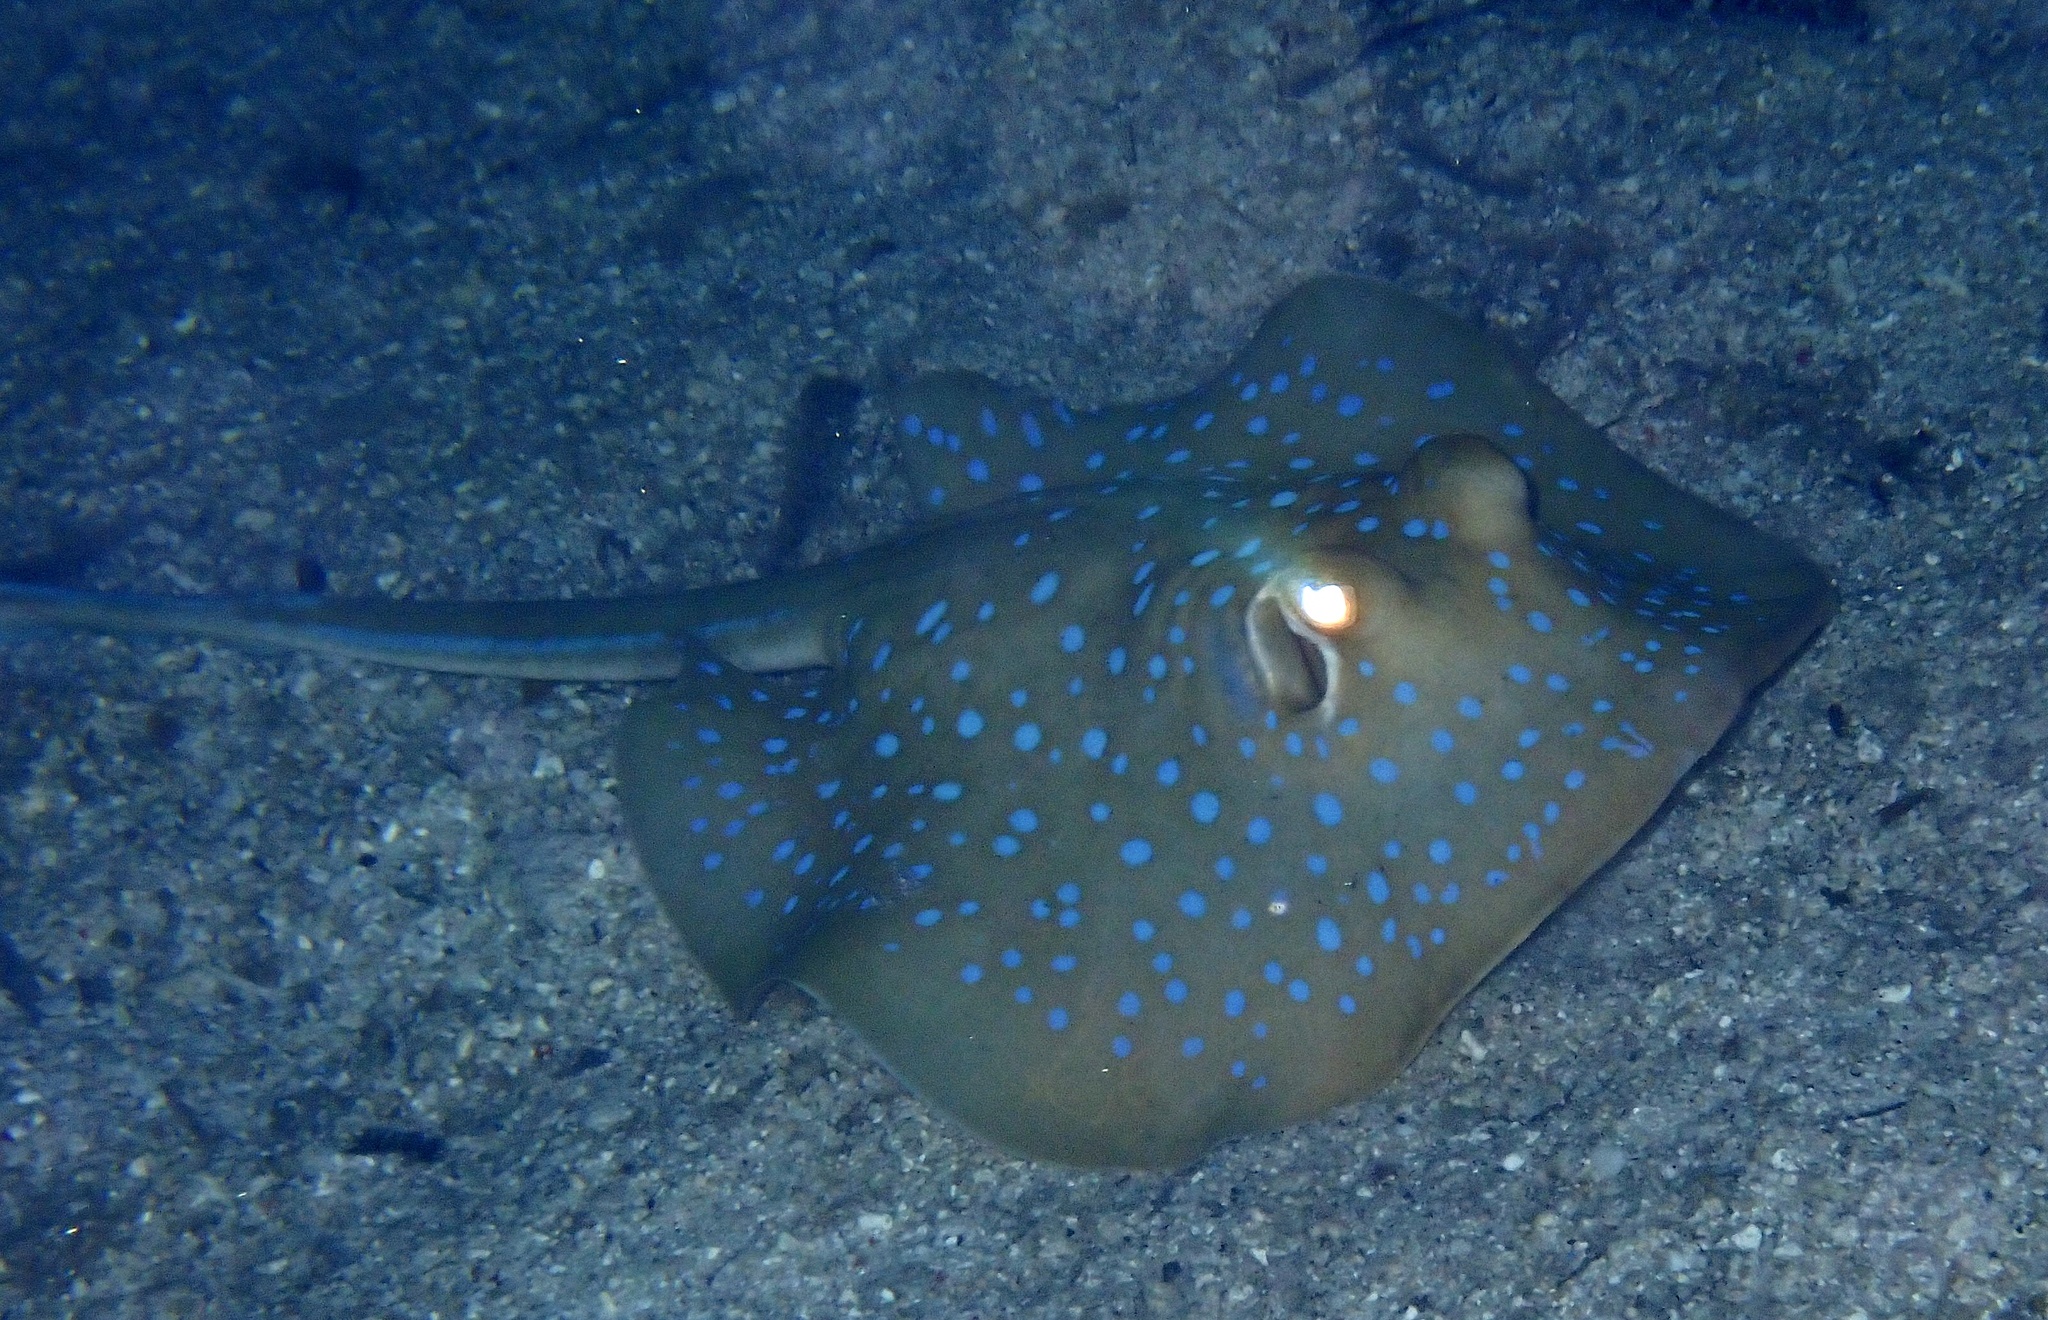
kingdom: Animalia
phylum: Chordata
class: Elasmobranchii
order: Myliobatiformes
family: Dasyatidae
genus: Taeniura
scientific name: Taeniura lymma
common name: Bluespotted ribbontail ray
